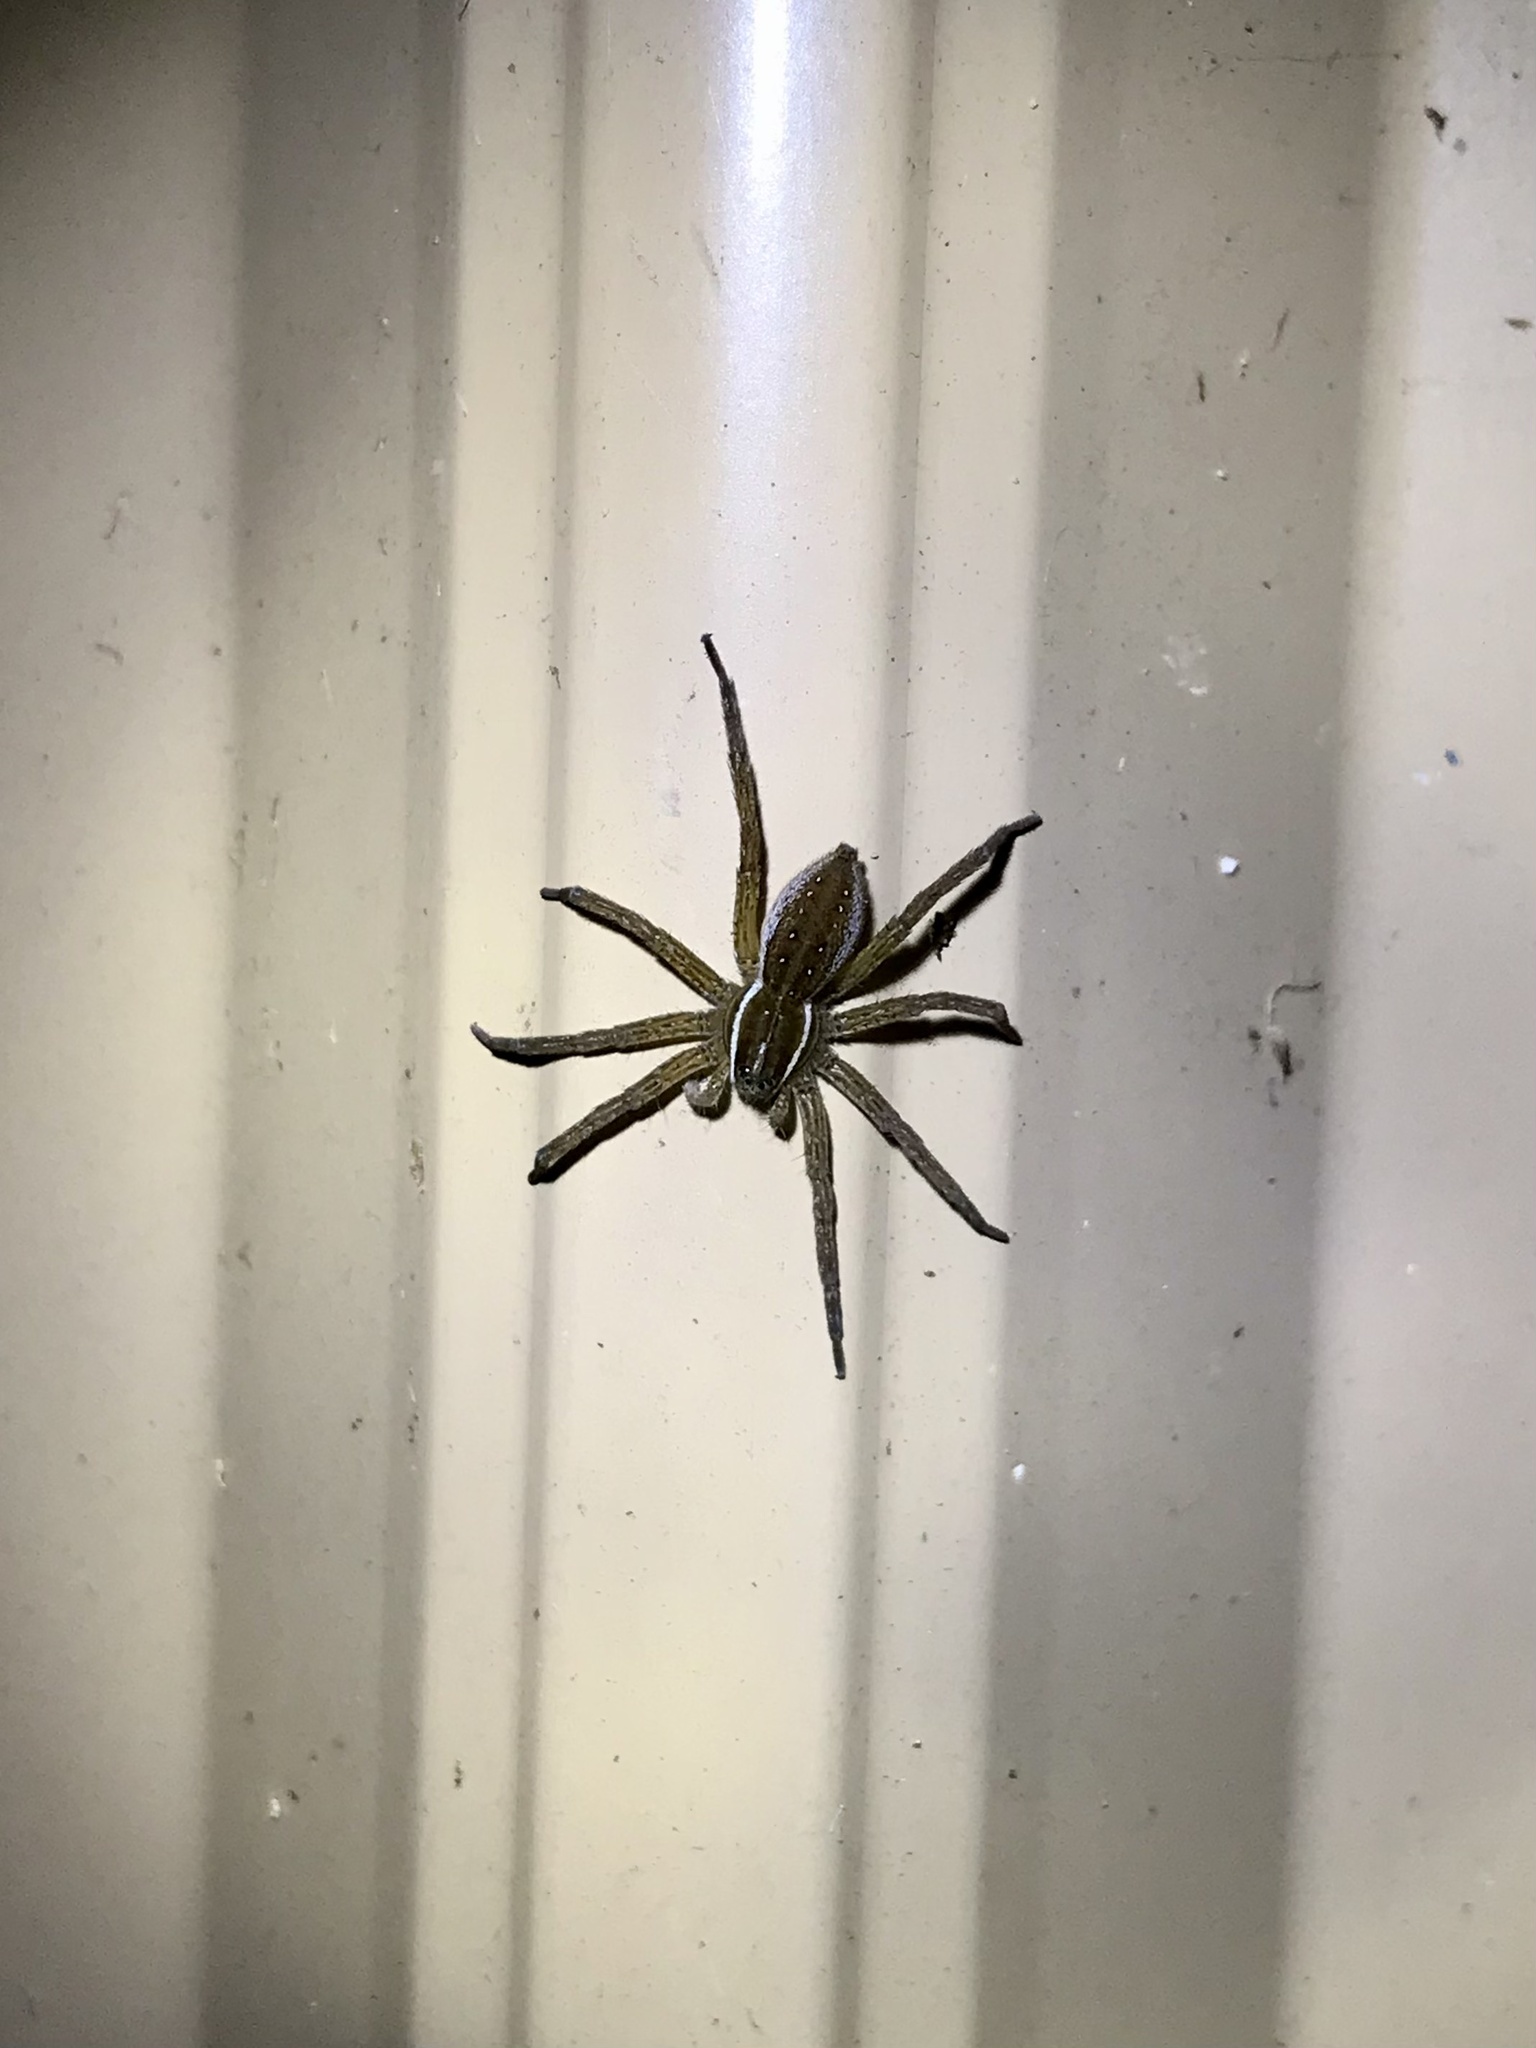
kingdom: Animalia
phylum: Arthropoda
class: Arachnida
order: Araneae
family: Pisauridae
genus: Dolomedes
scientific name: Dolomedes triton
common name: Six-spotted fishing spider
